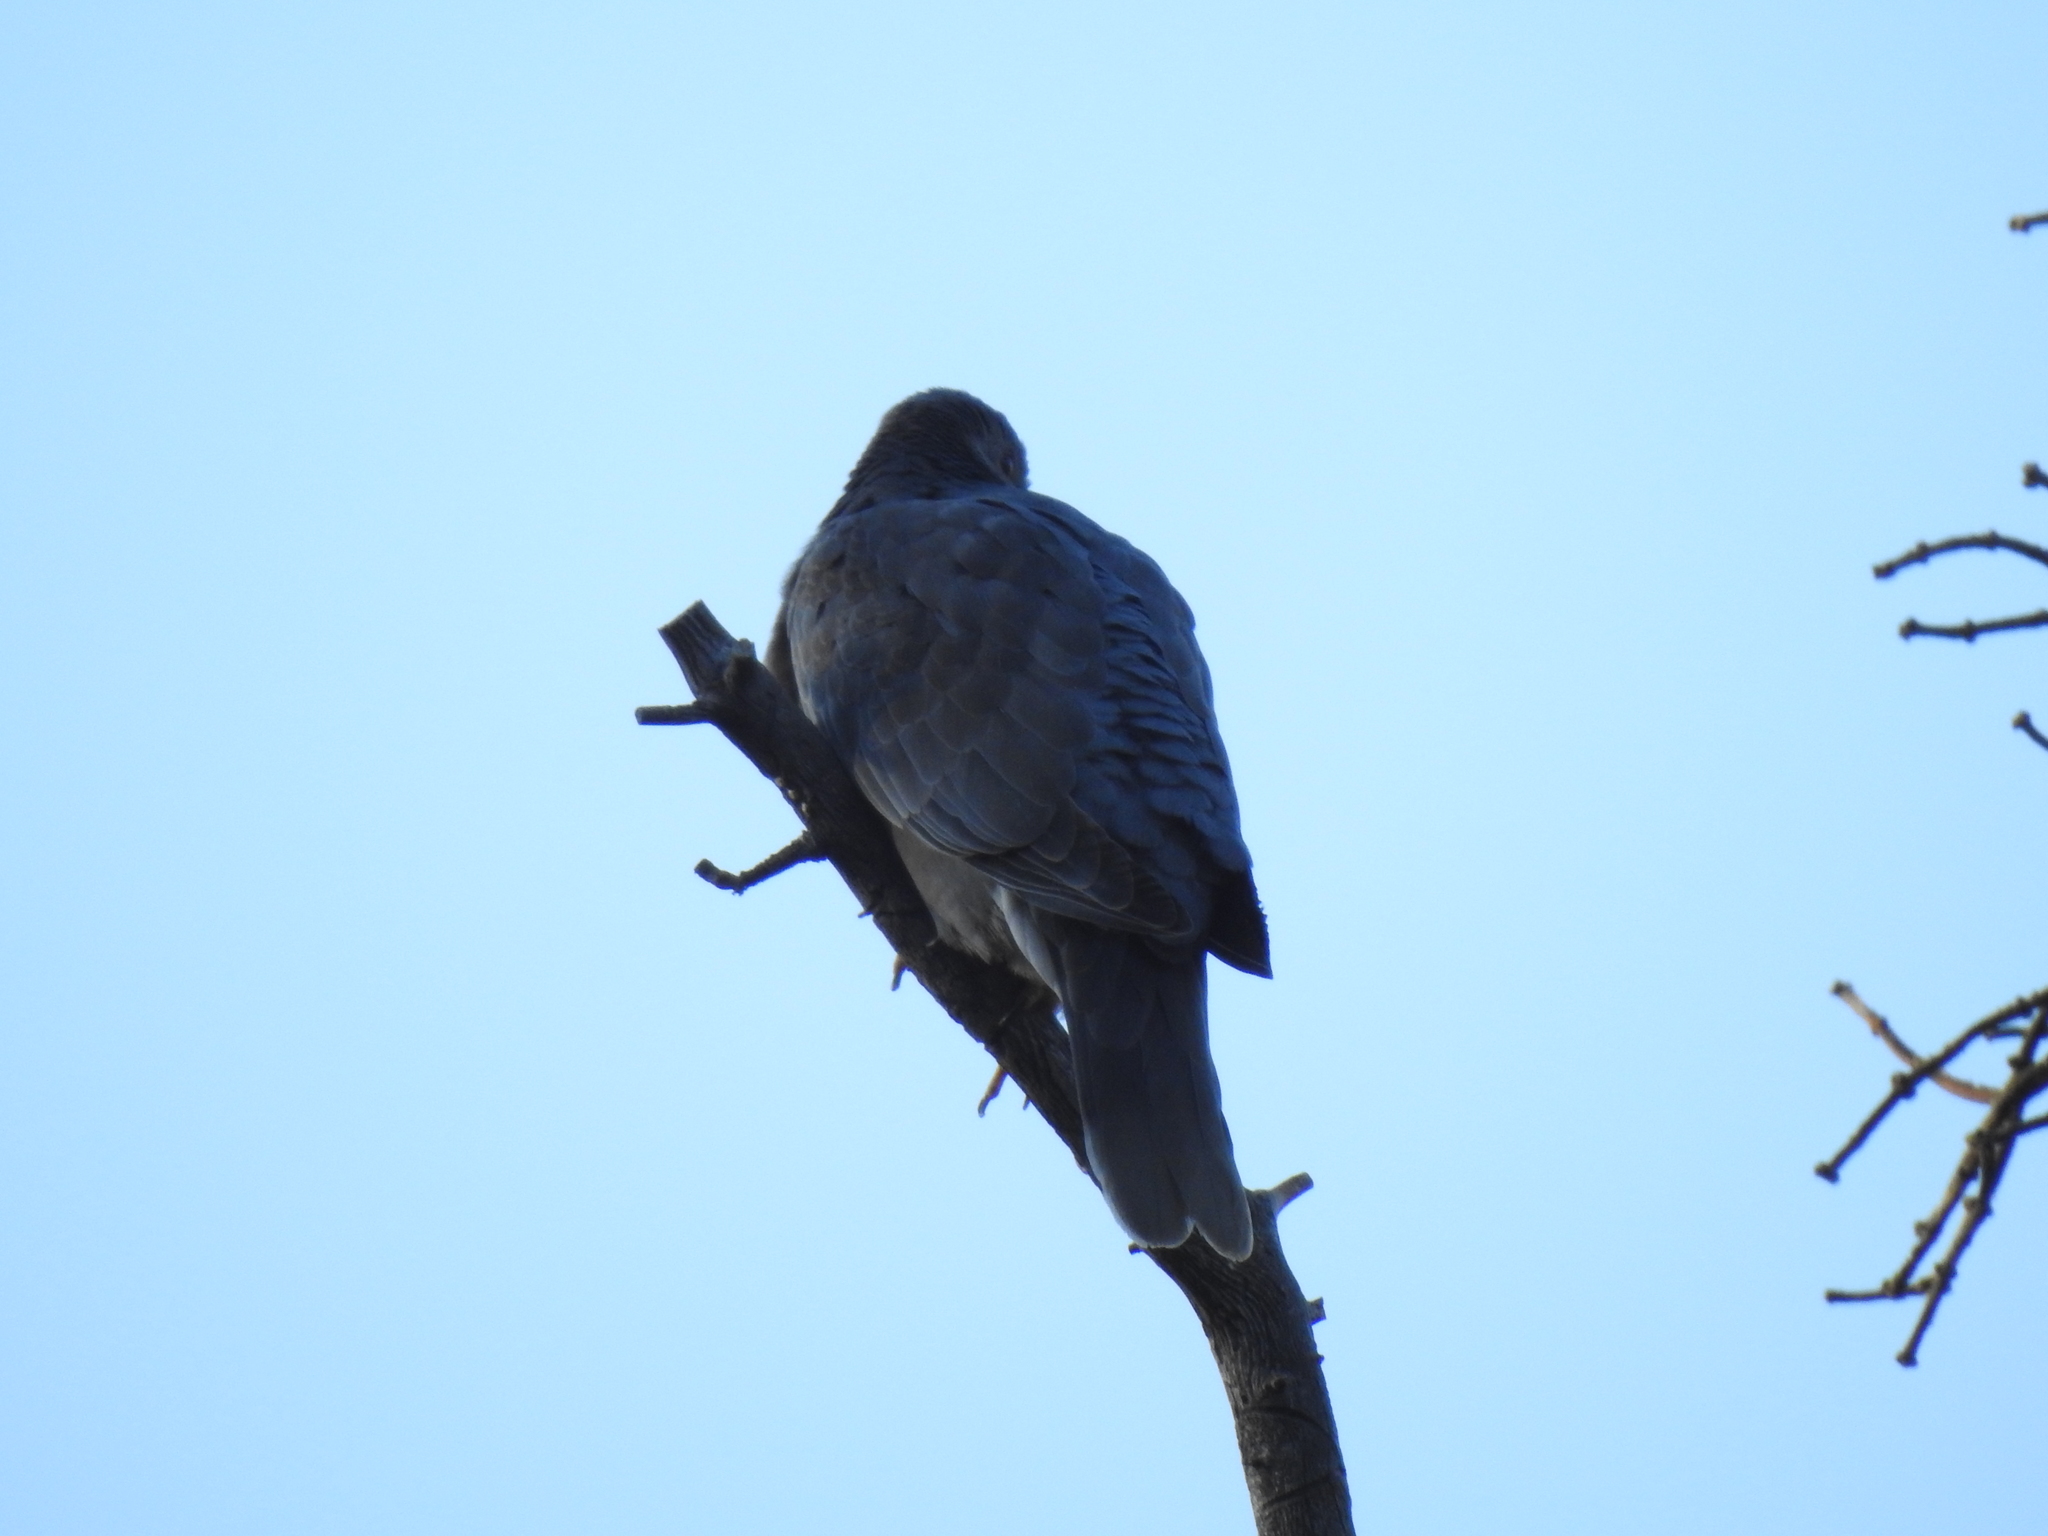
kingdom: Animalia
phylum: Chordata
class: Aves
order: Columbiformes
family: Columbidae
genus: Patagioenas
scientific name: Patagioenas fasciata
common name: Band-tailed pigeon
